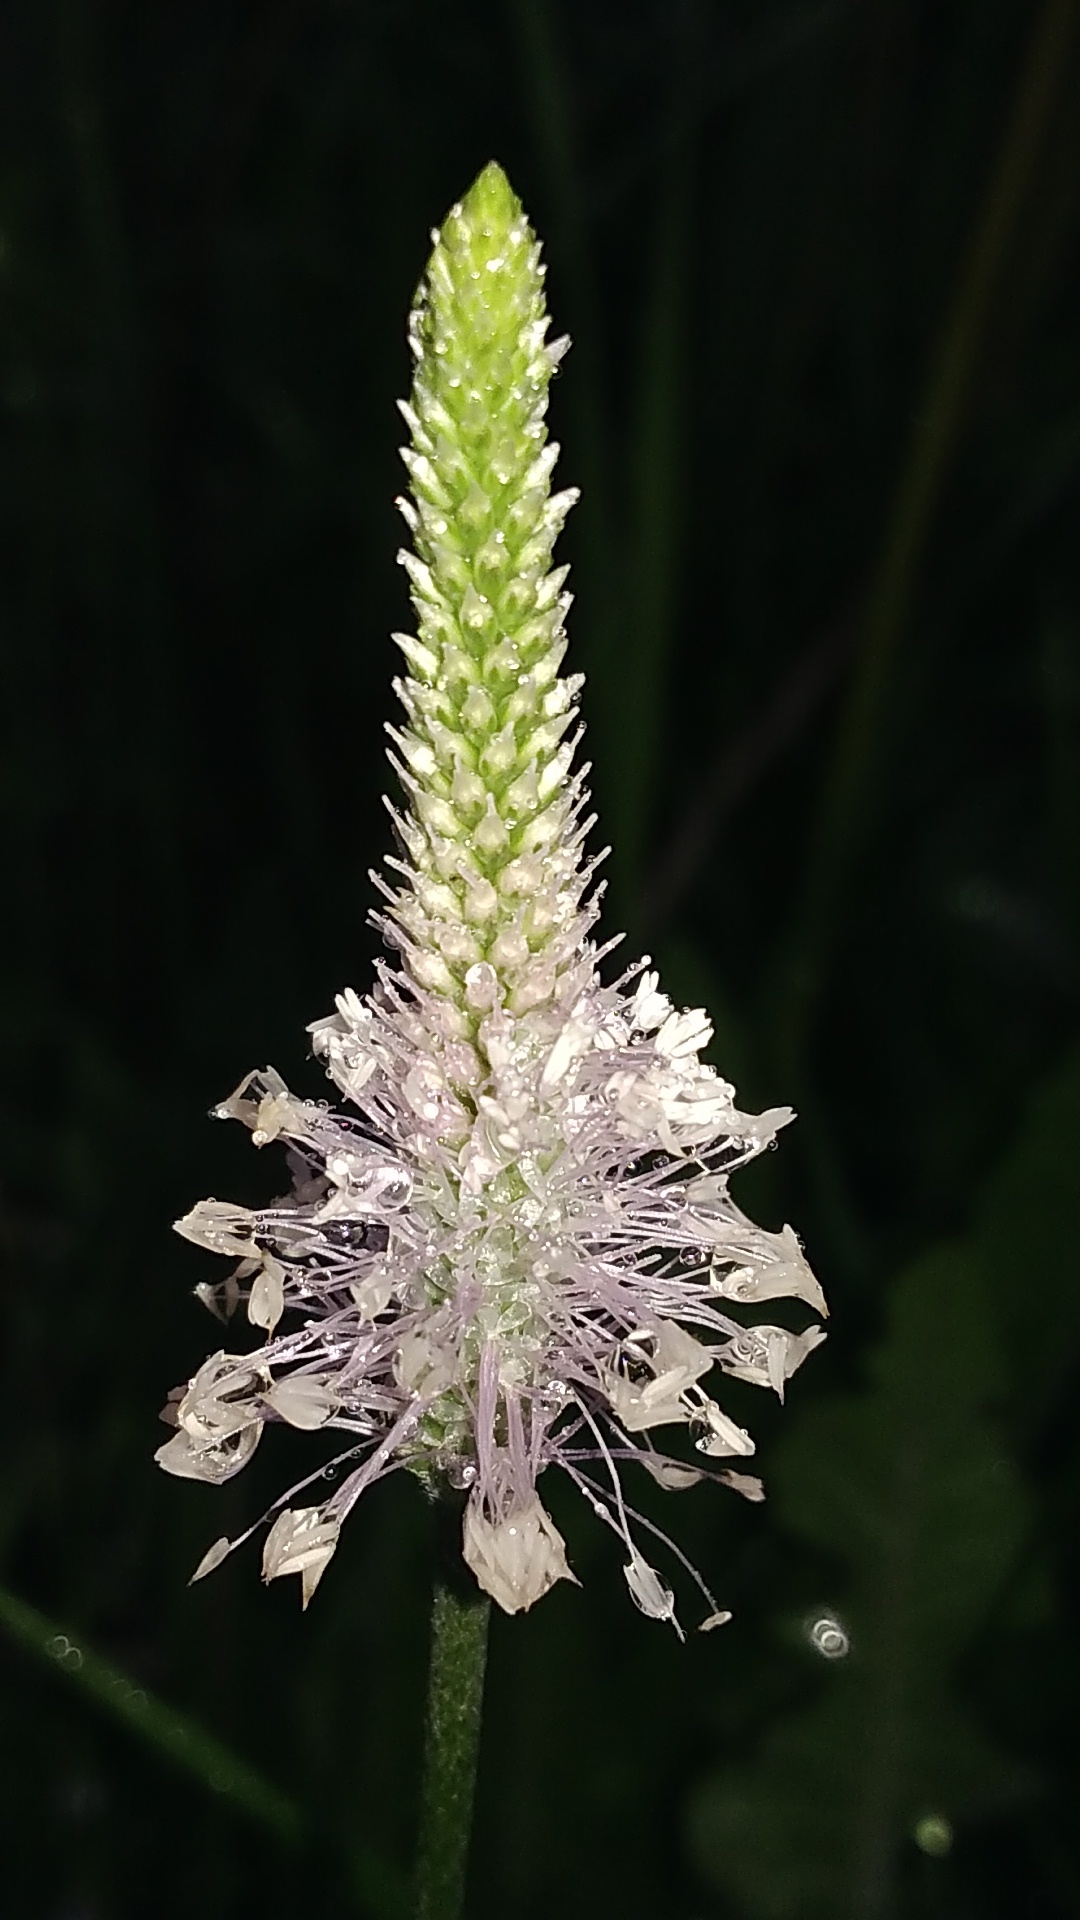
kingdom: Plantae
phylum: Tracheophyta
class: Magnoliopsida
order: Lamiales
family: Plantaginaceae
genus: Plantago
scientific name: Plantago media
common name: Hoary plantain
